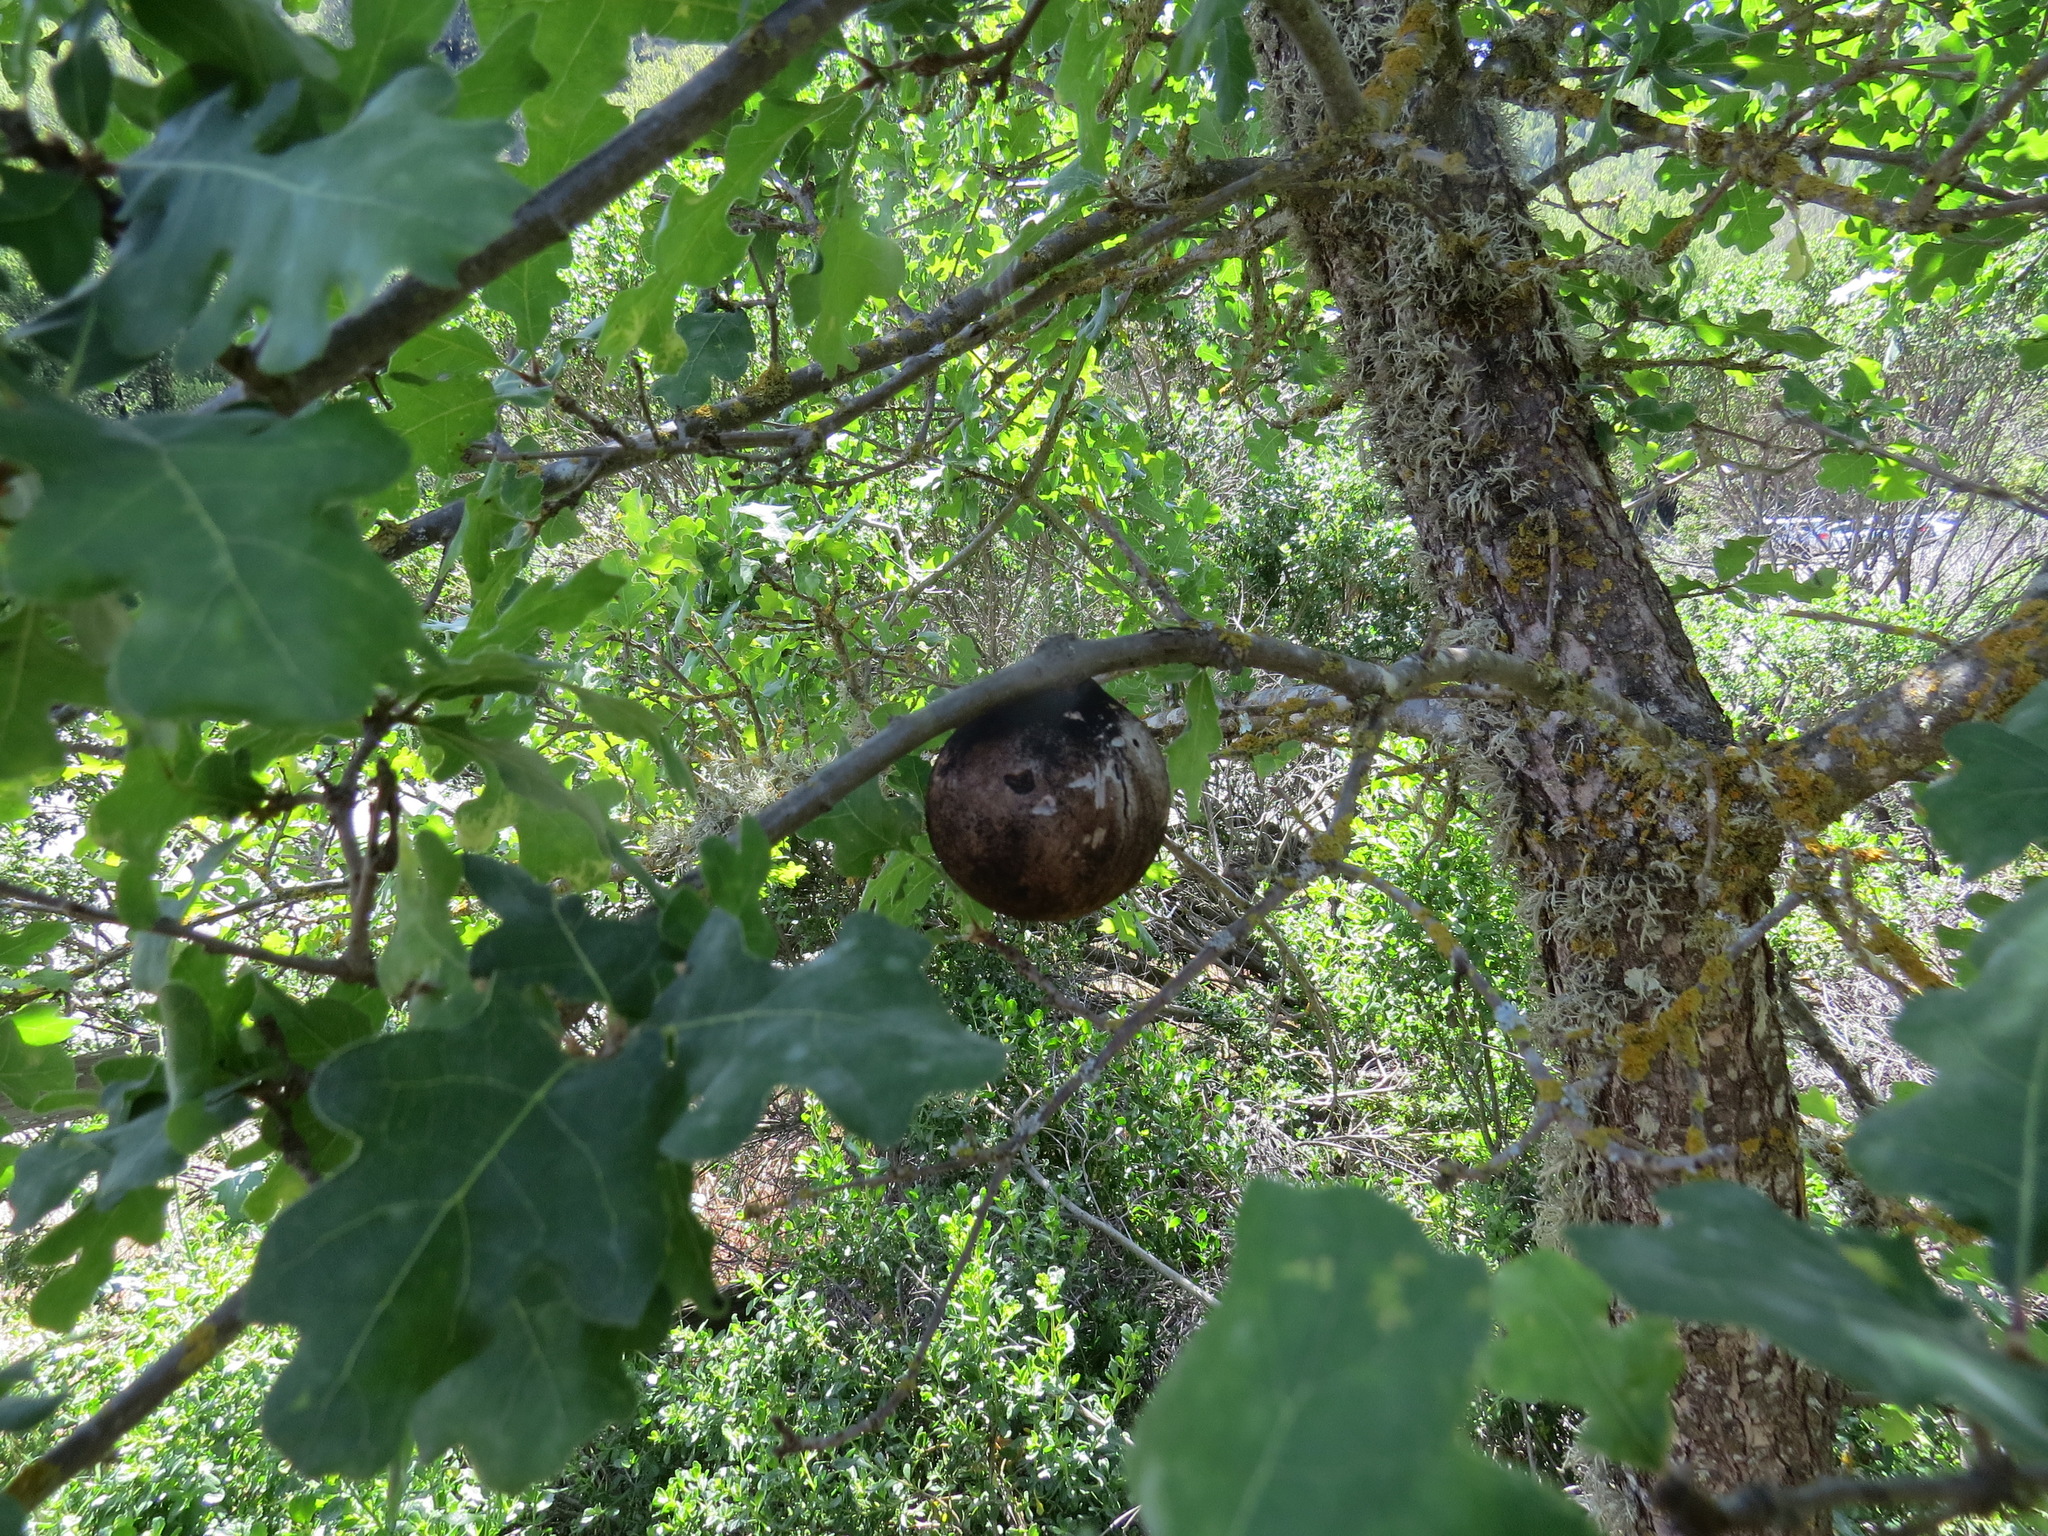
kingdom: Animalia
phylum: Arthropoda
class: Insecta
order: Hymenoptera
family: Cynipidae
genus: Andricus
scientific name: Andricus quercuscalifornicus
